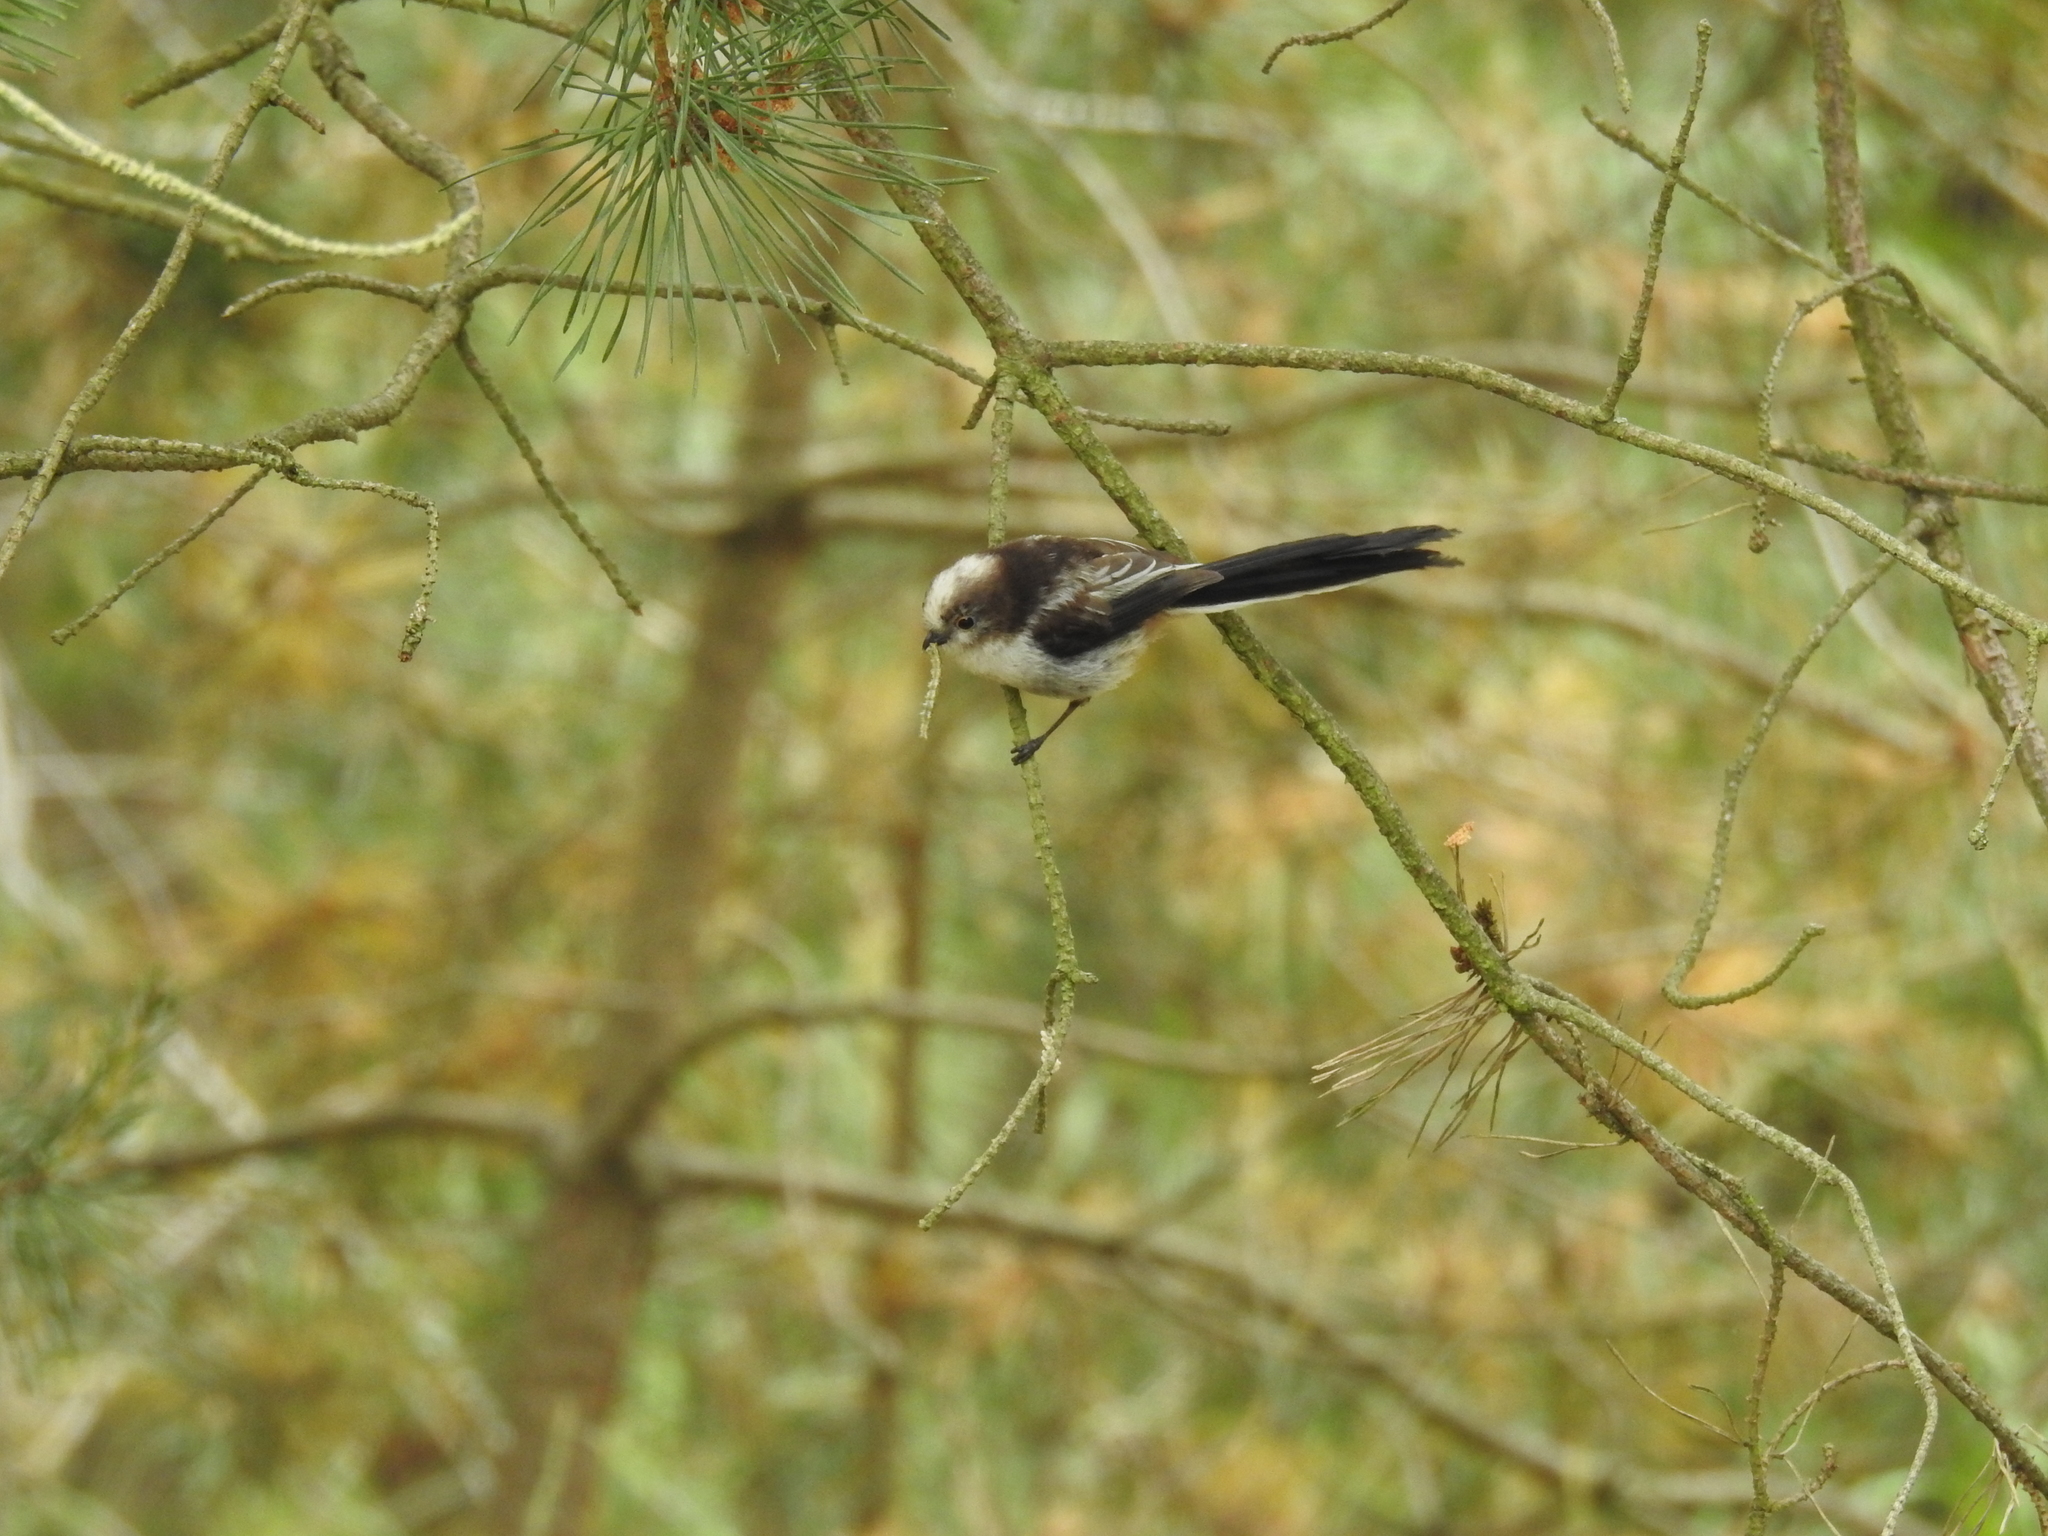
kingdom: Animalia
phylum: Chordata
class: Aves
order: Passeriformes
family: Aegithalidae
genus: Aegithalos
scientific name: Aegithalos caudatus
